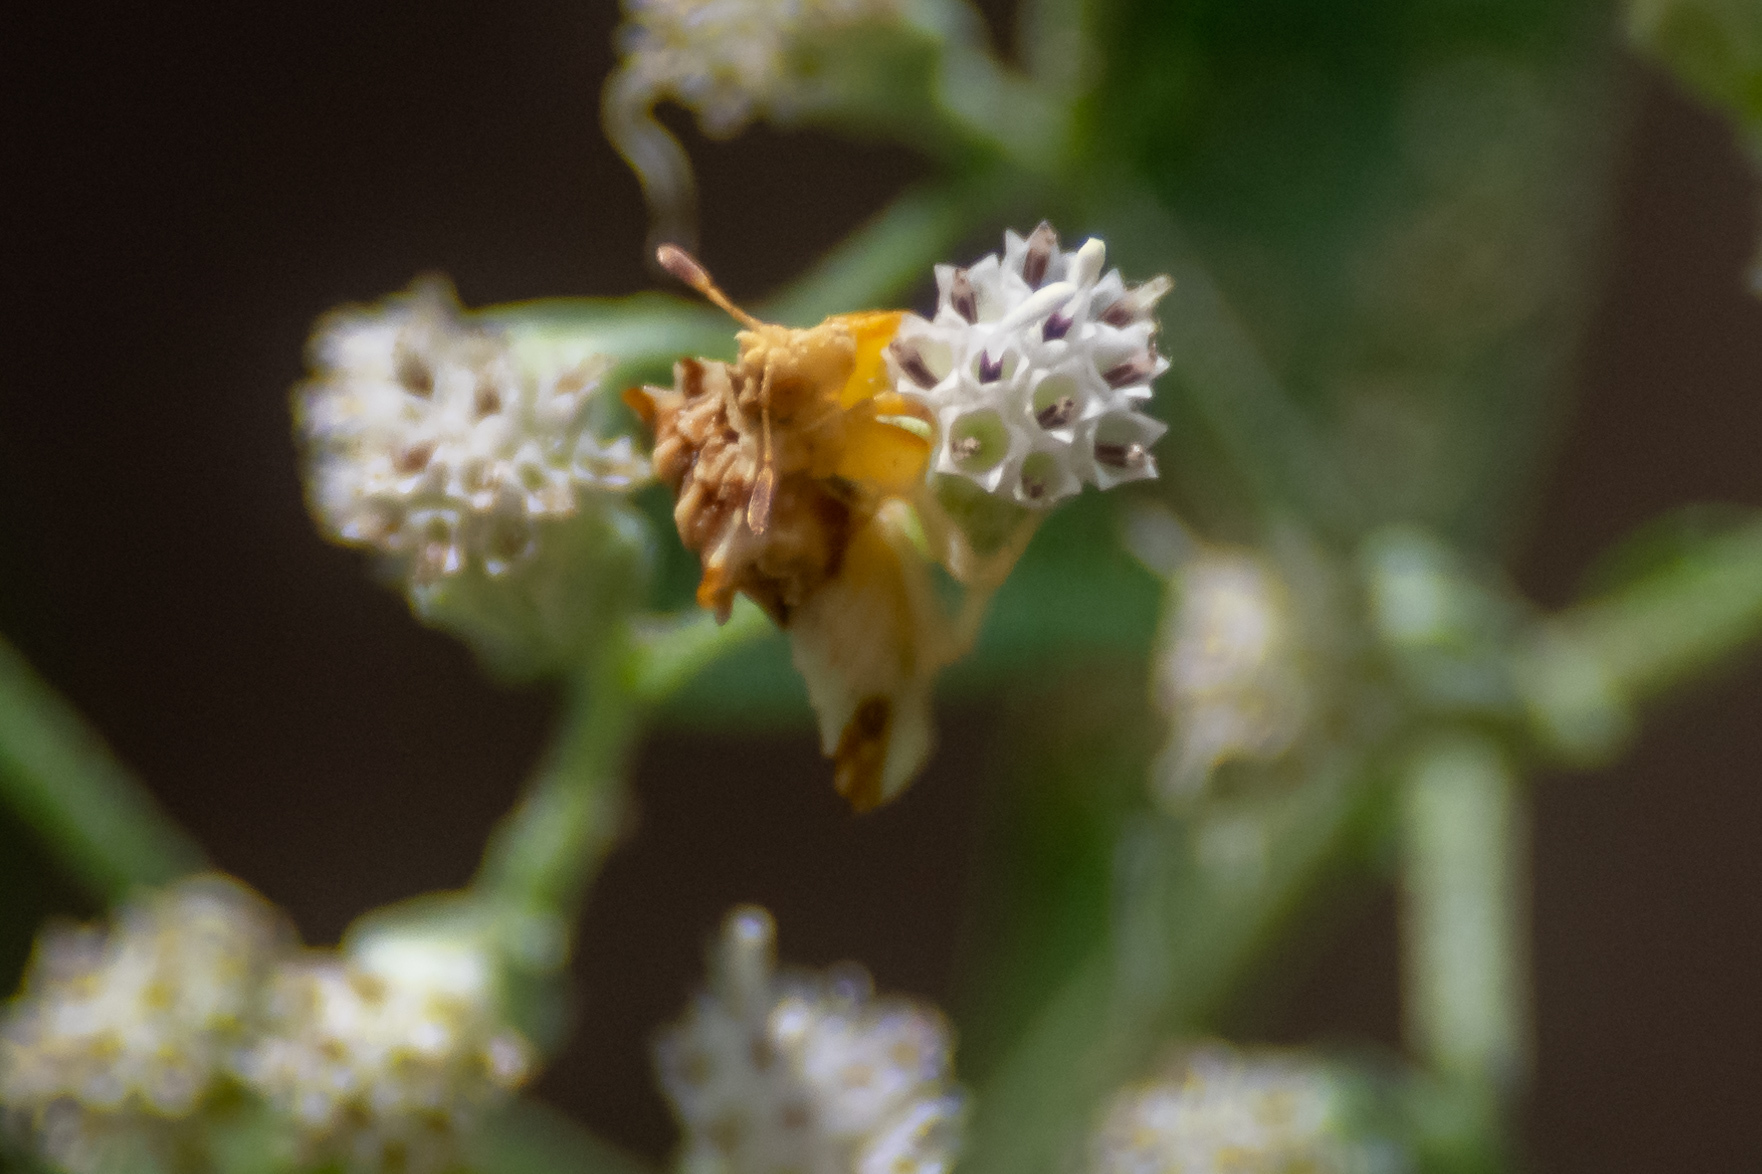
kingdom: Animalia
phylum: Arthropoda
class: Insecta
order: Hemiptera
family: Reduviidae
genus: Phymata
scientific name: Phymata fasciata
